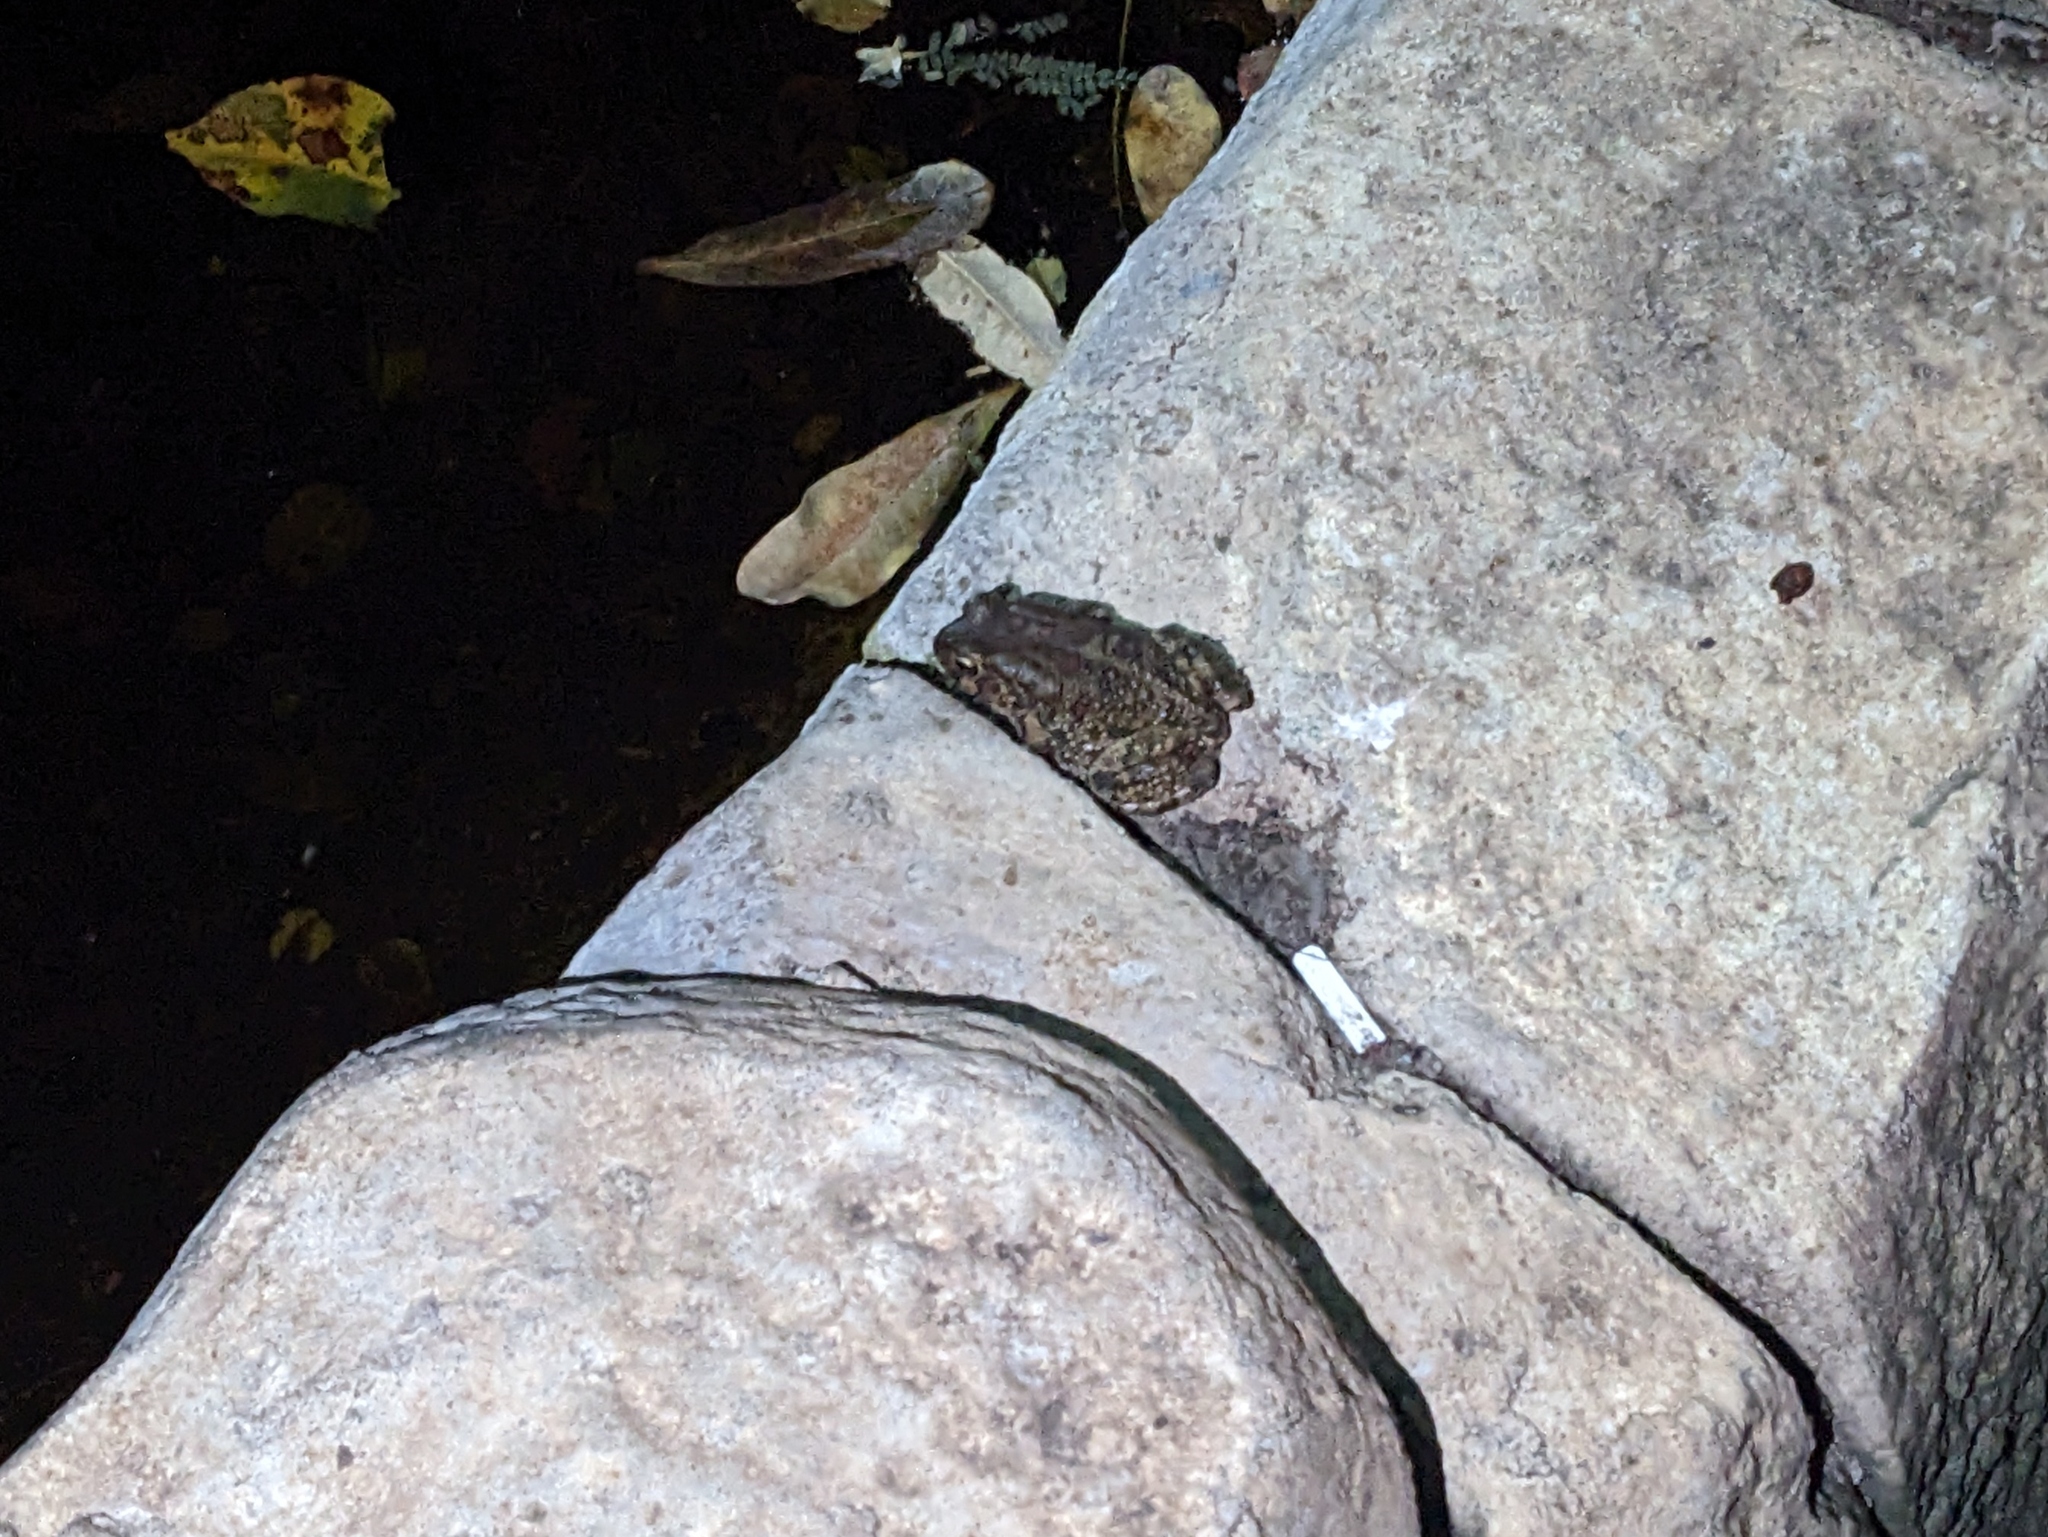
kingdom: Animalia
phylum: Chordata
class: Amphibia
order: Anura
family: Bufonidae
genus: Sclerophrys
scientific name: Sclerophrys garmani
